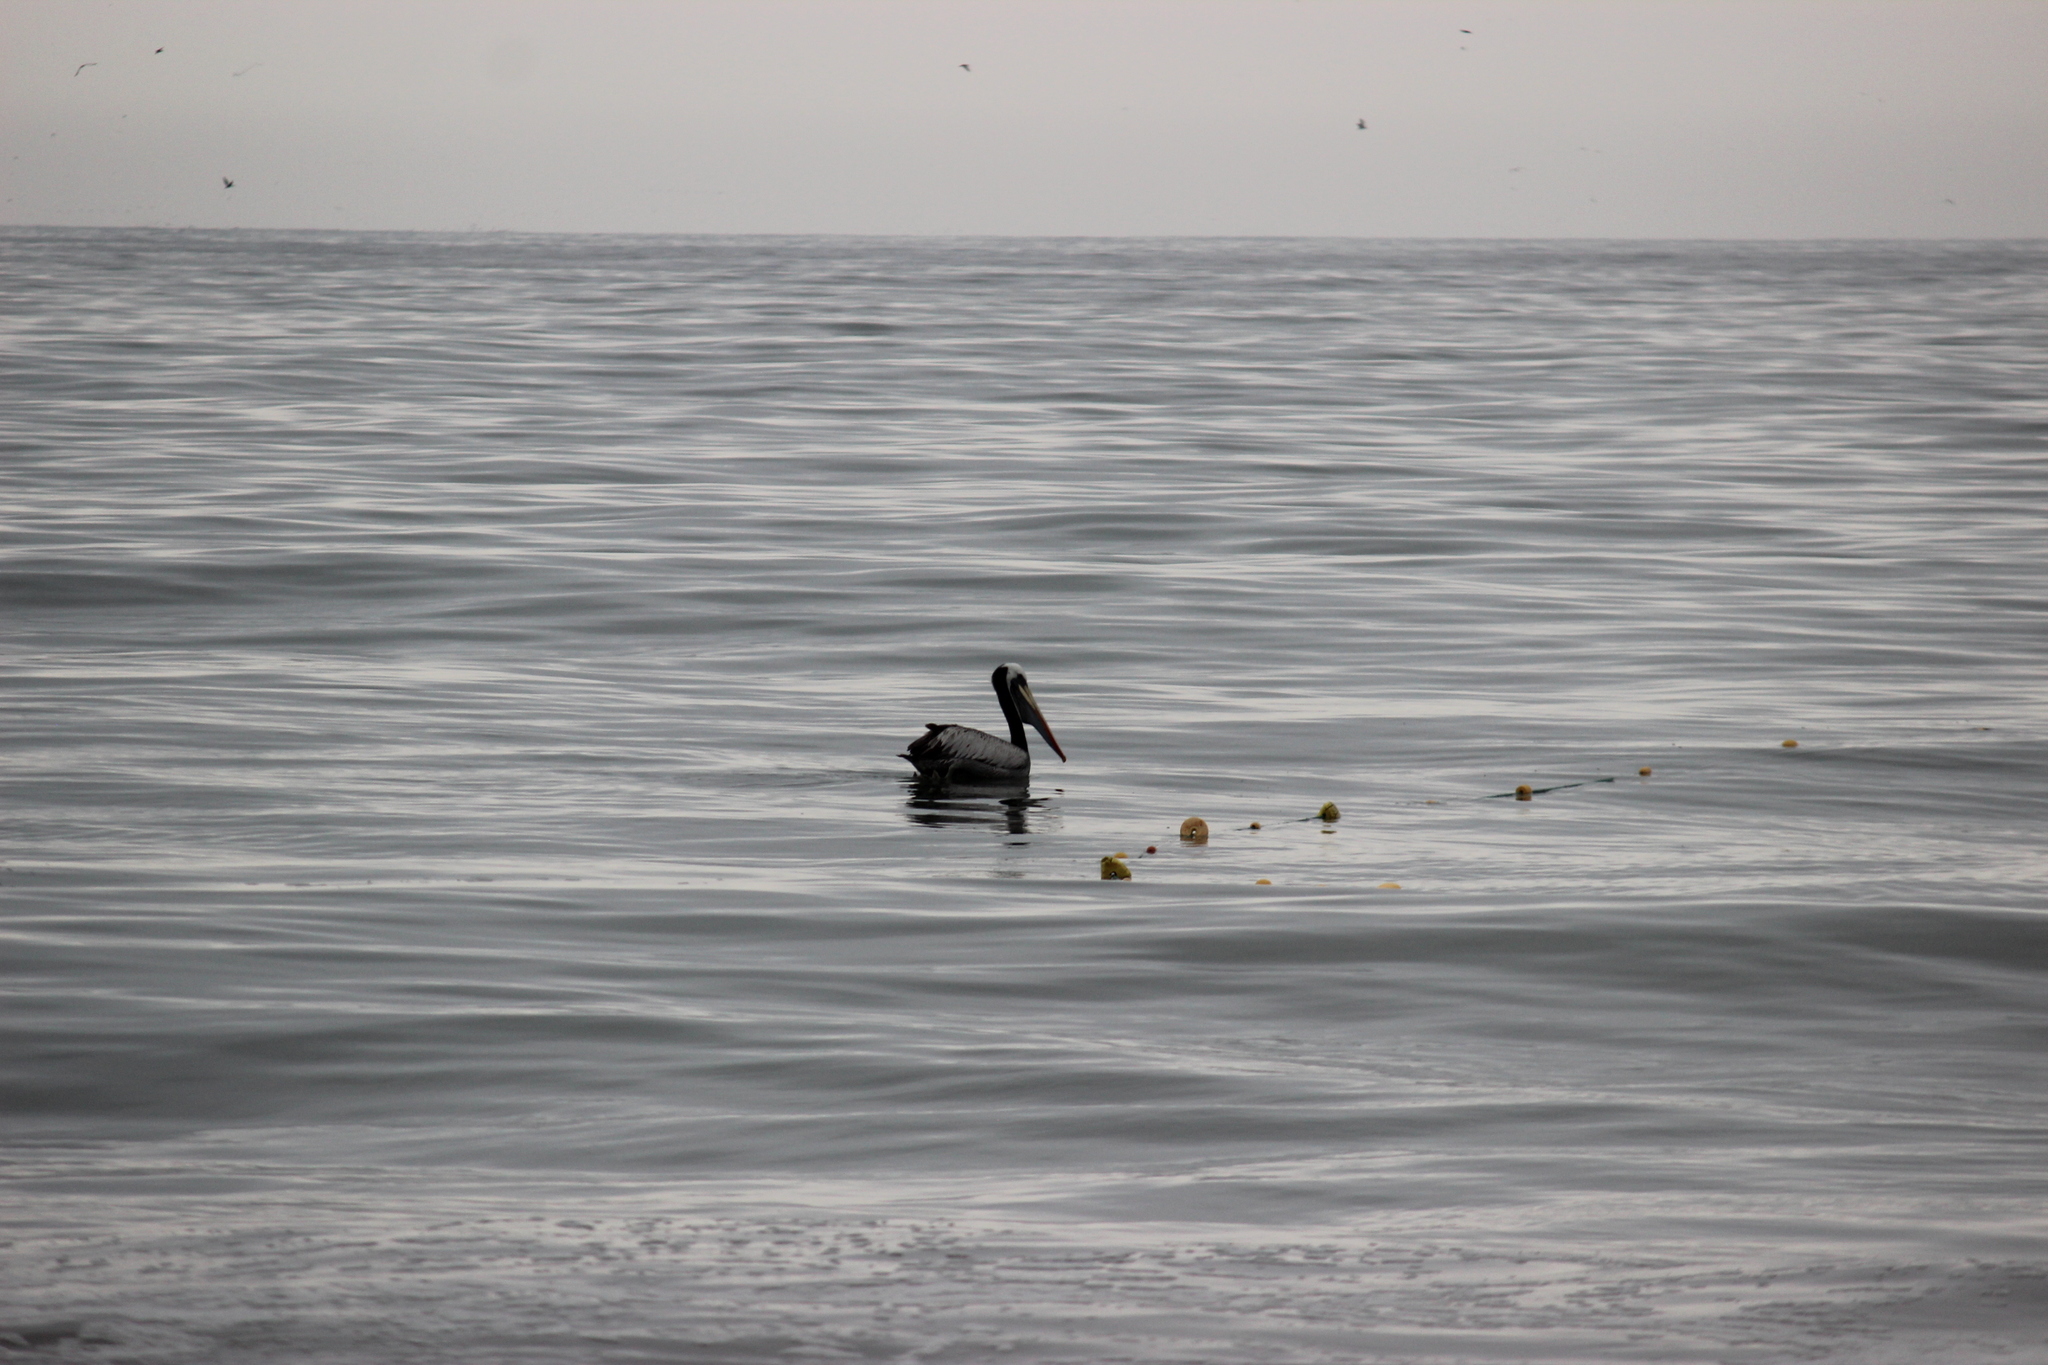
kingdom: Animalia
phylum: Chordata
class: Aves
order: Pelecaniformes
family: Pelecanidae
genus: Pelecanus
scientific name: Pelecanus thagus
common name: Peruvian pelican
